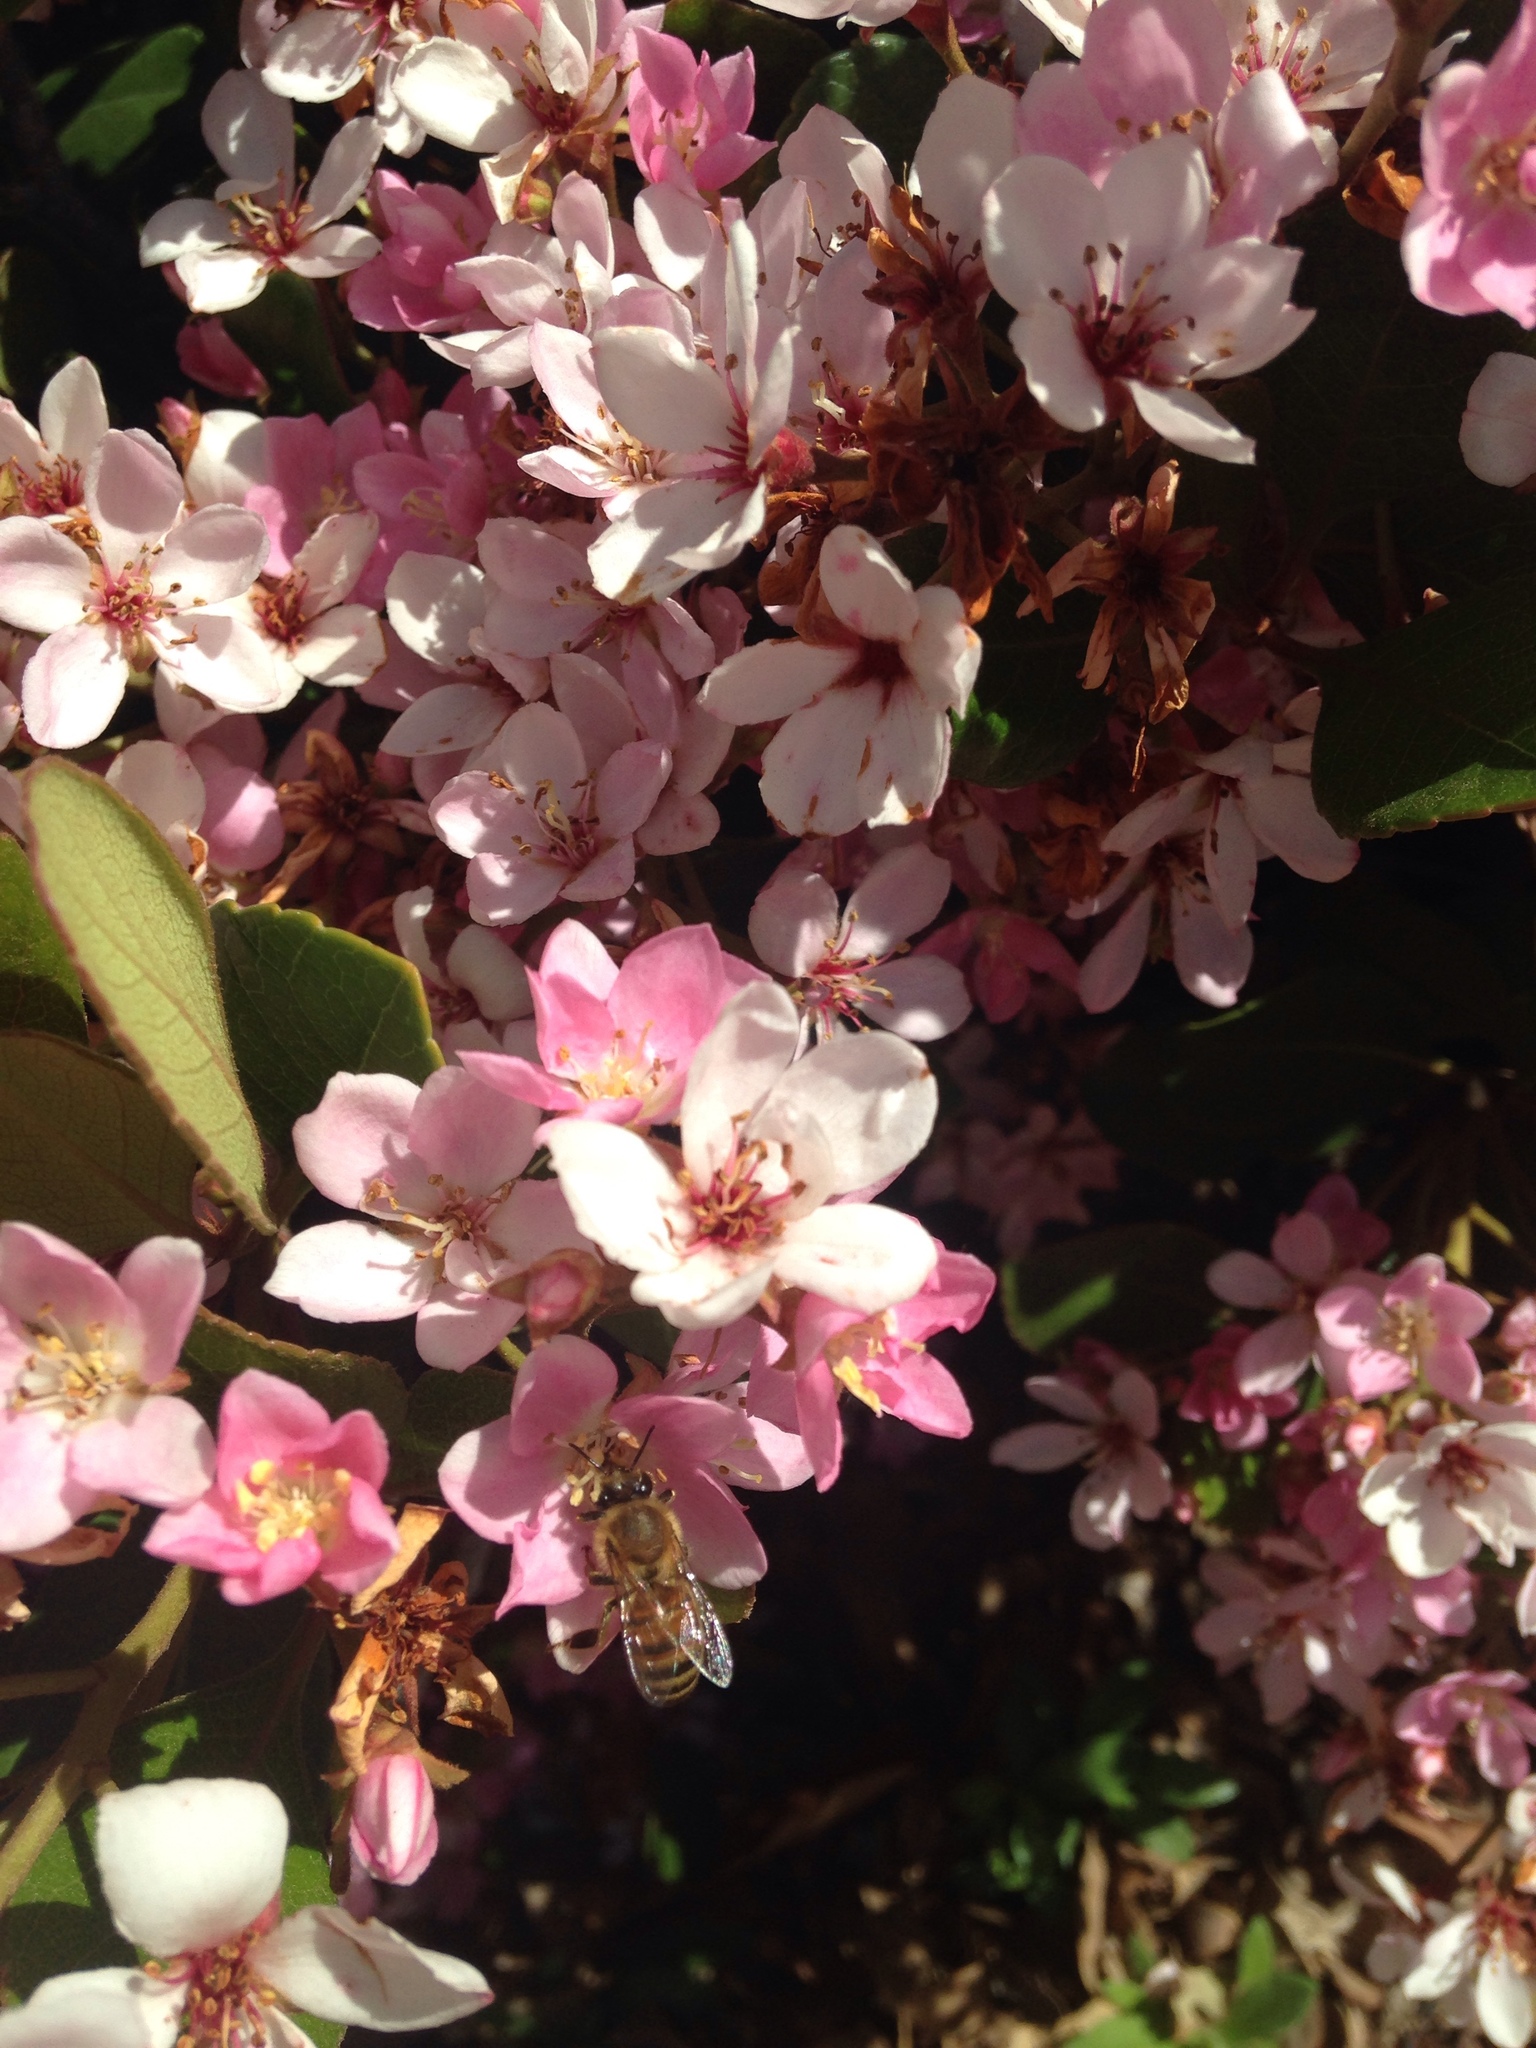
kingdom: Animalia
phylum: Arthropoda
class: Insecta
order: Hymenoptera
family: Apidae
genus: Apis
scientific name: Apis mellifera
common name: Honey bee
